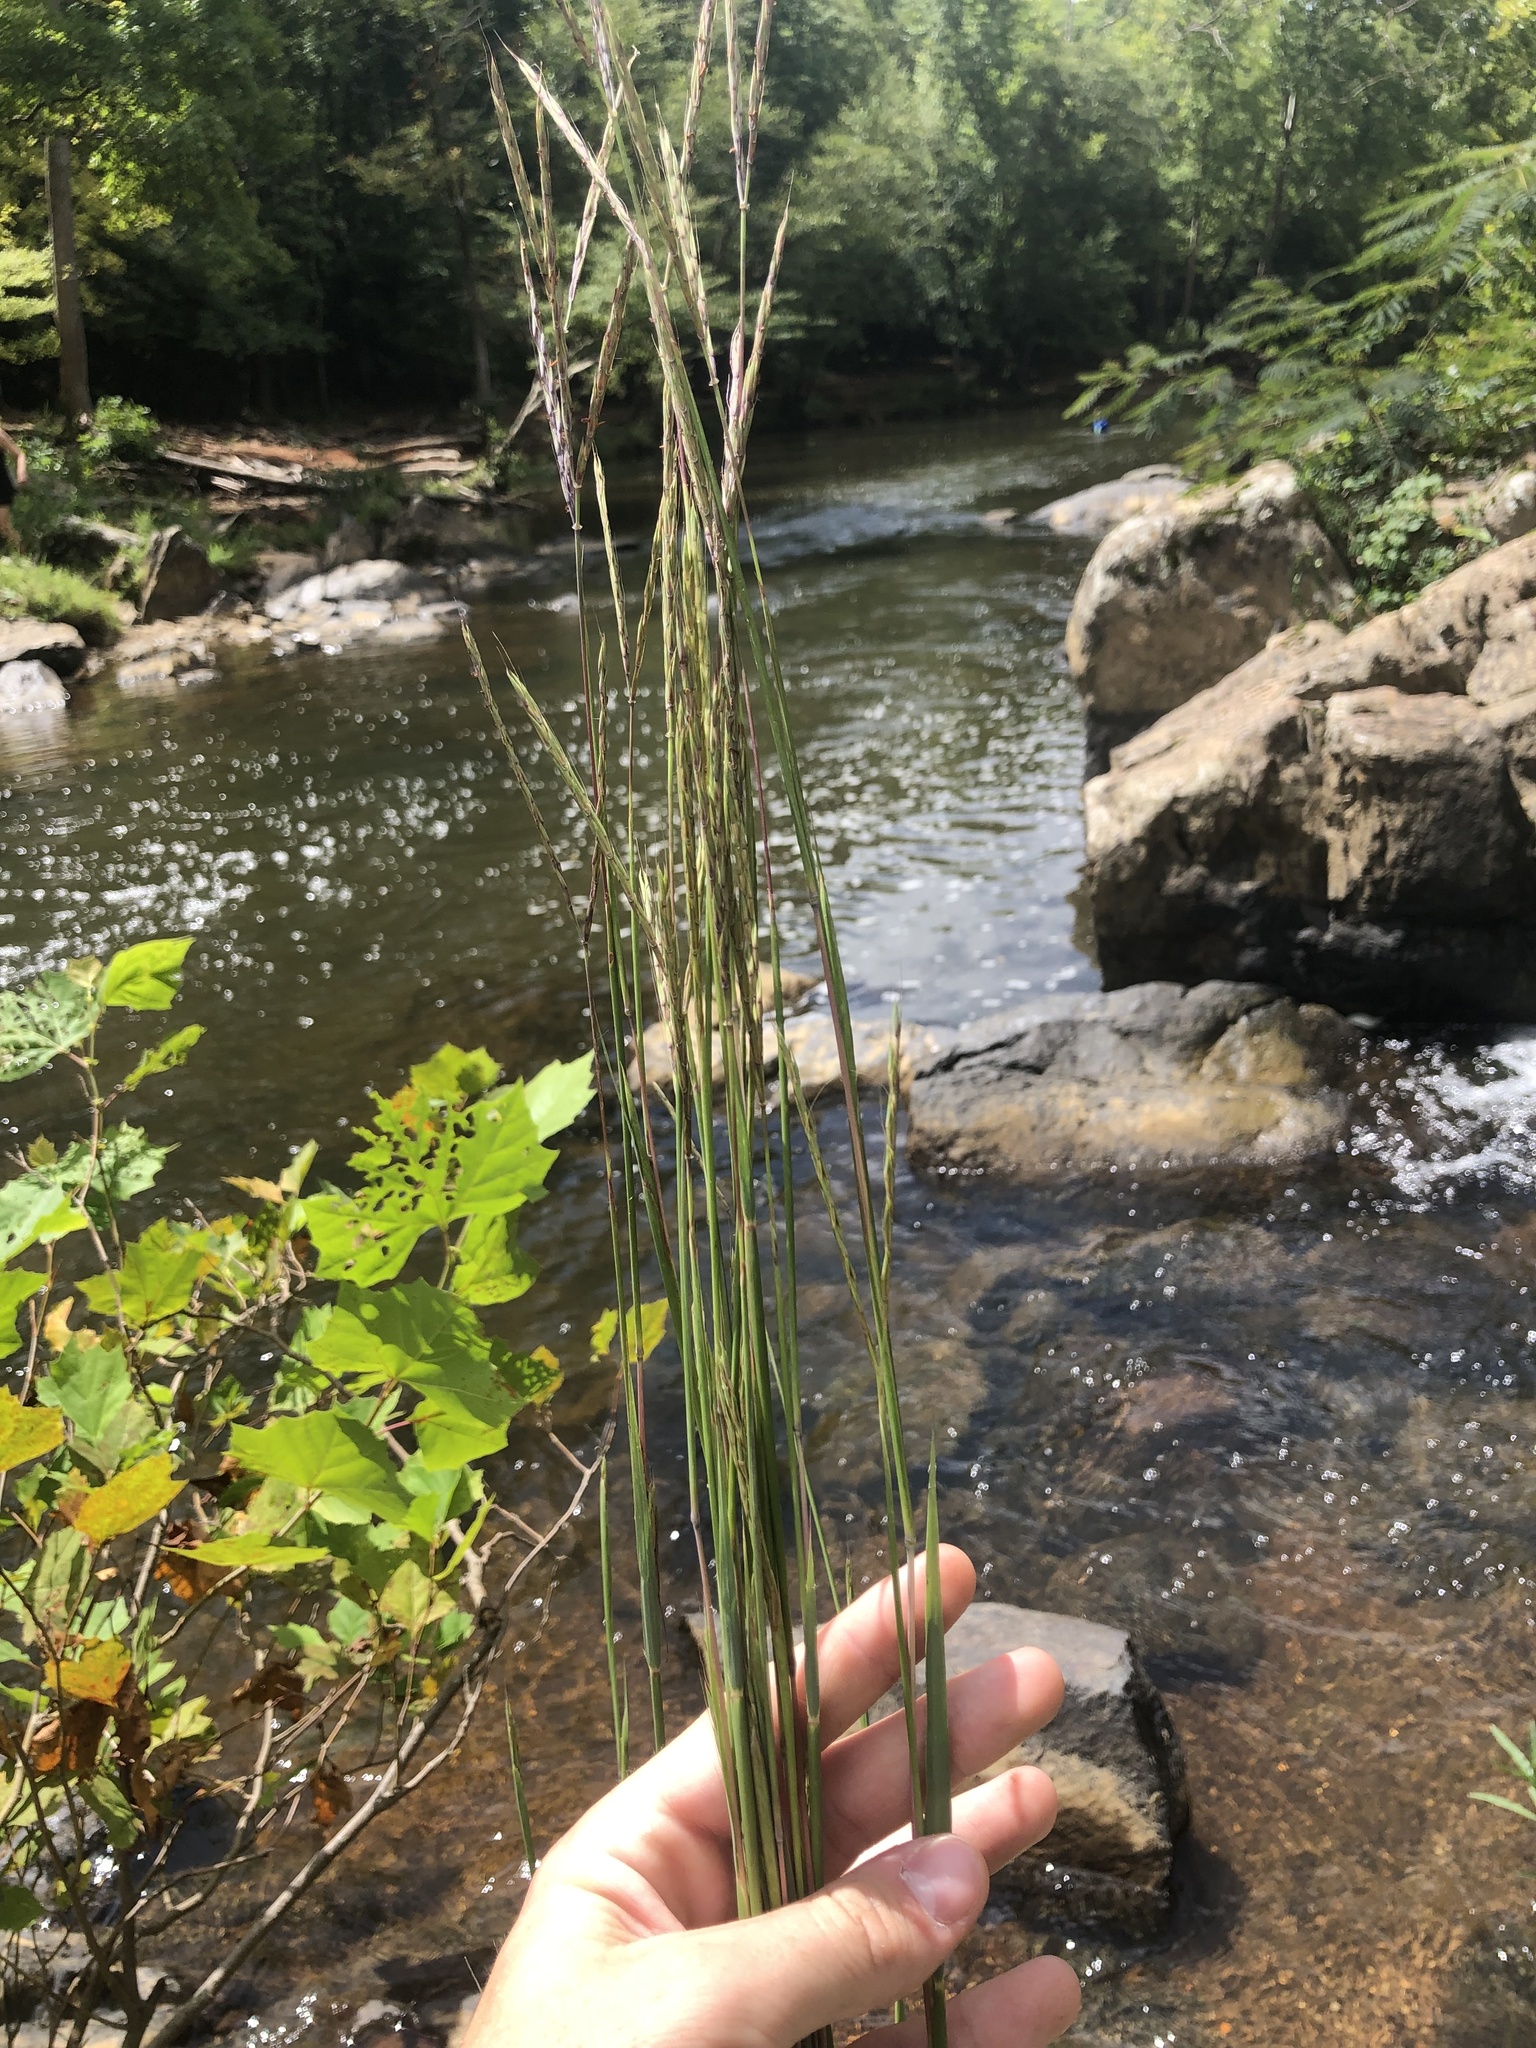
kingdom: Plantae
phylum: Tracheophyta
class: Liliopsida
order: Poales
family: Poaceae
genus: Andropogon
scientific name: Andropogon gerardi
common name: Big bluestem
